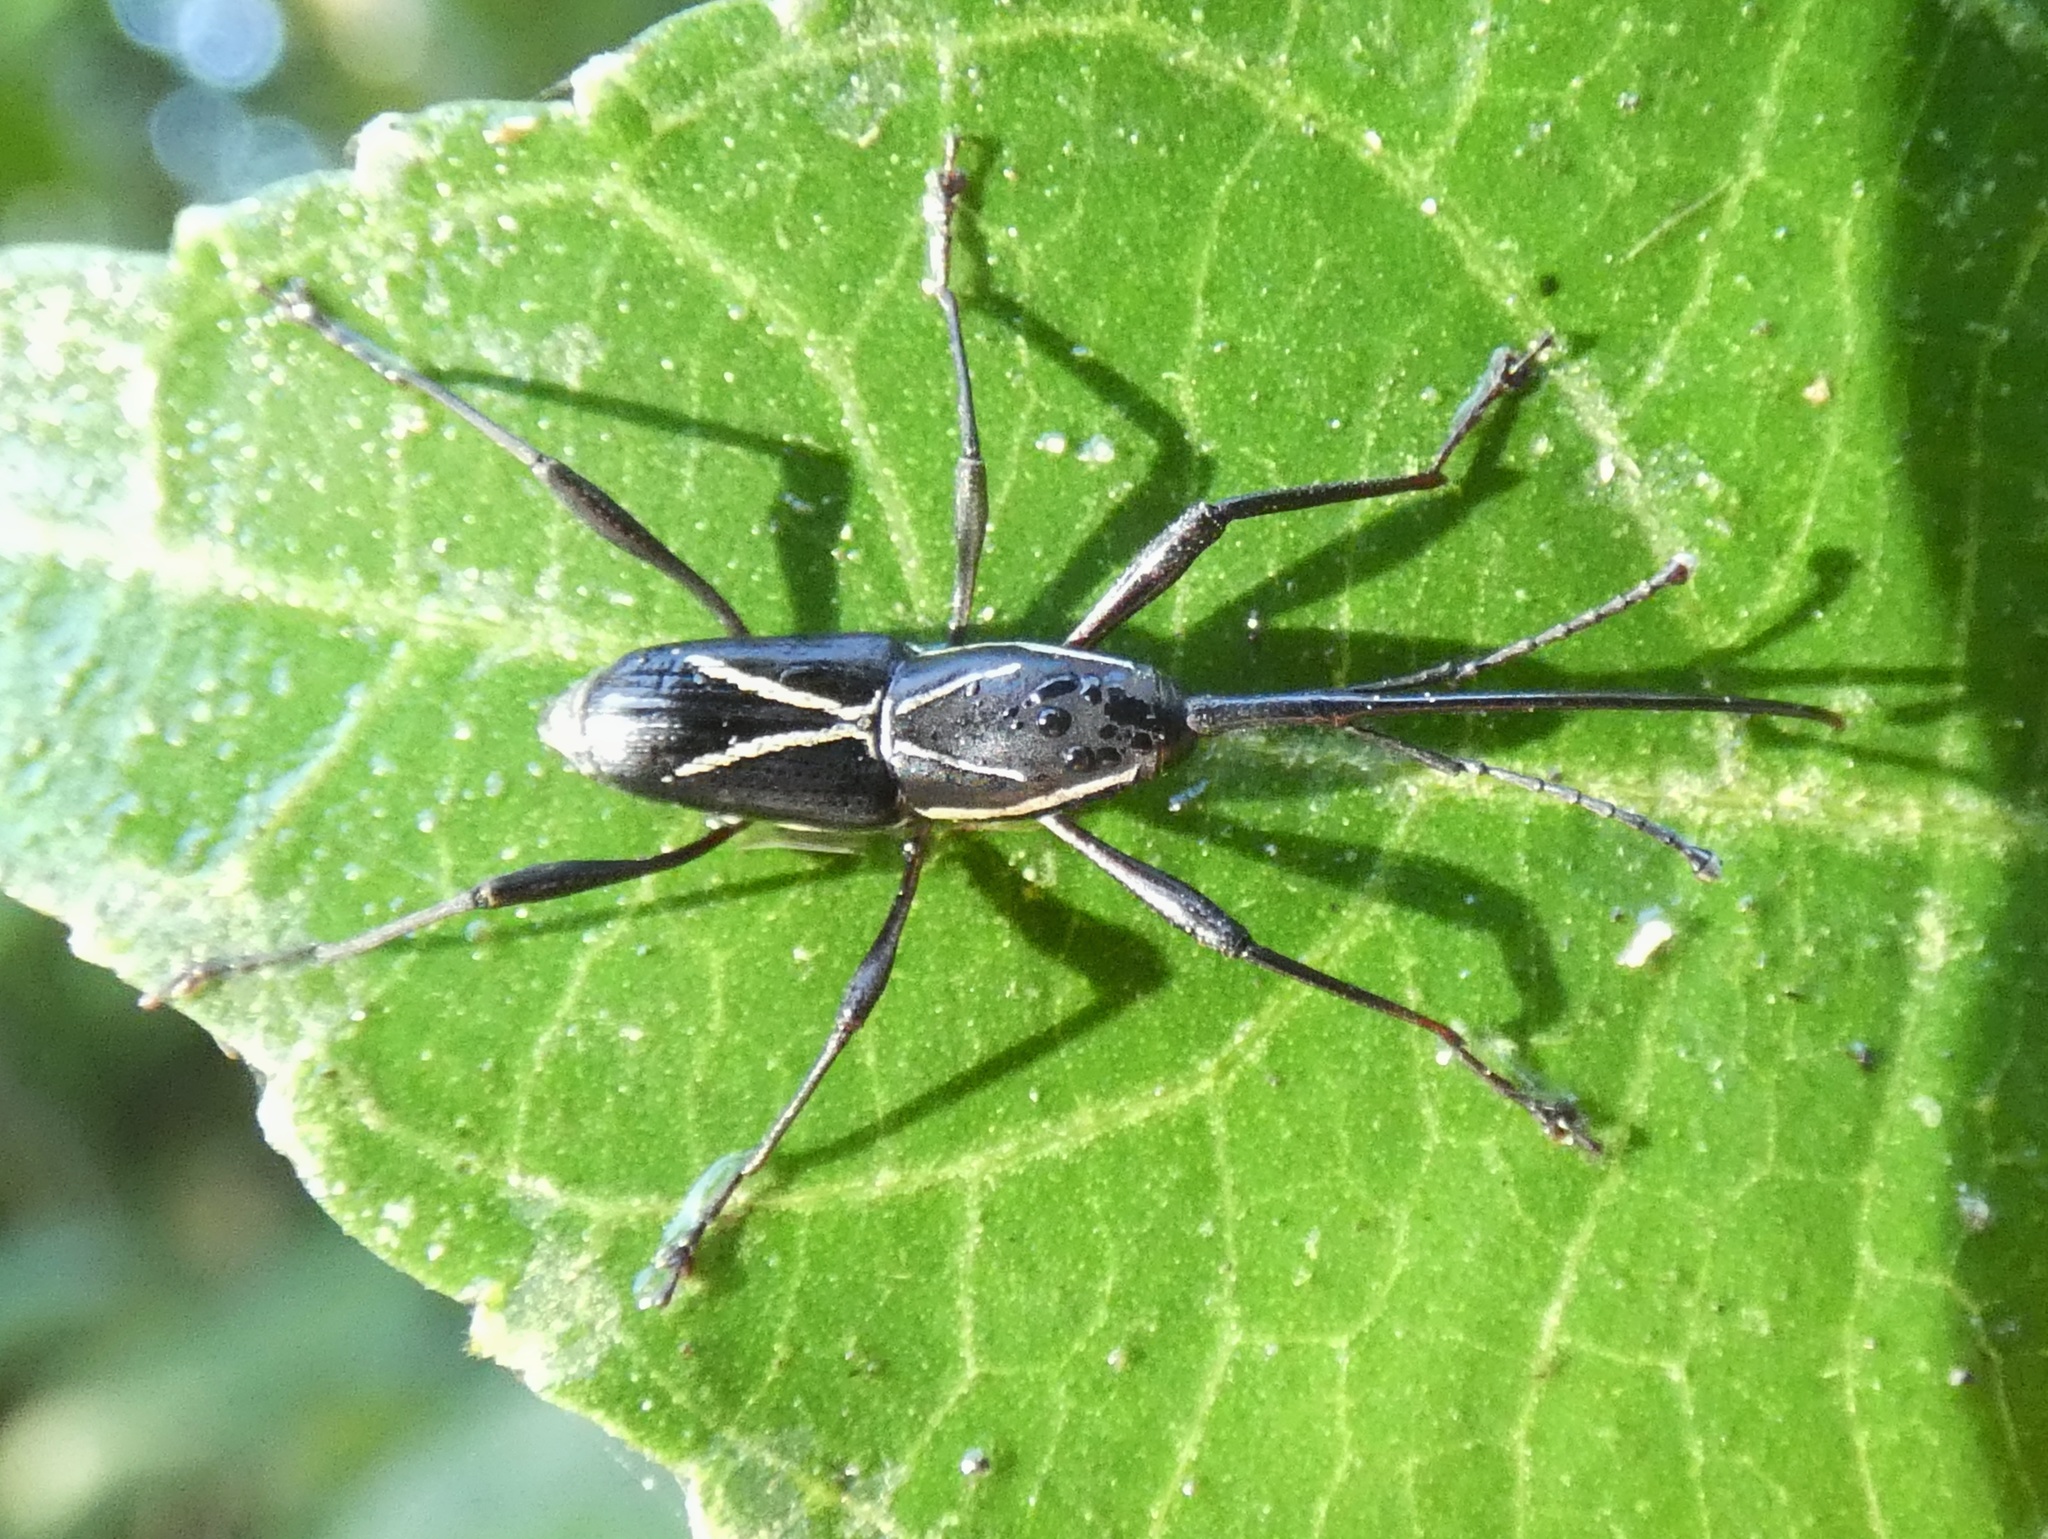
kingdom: Animalia
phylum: Arthropoda
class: Insecta
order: Coleoptera
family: Dryophthoridae
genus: Sitophilus
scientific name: Sitophilus banonii
